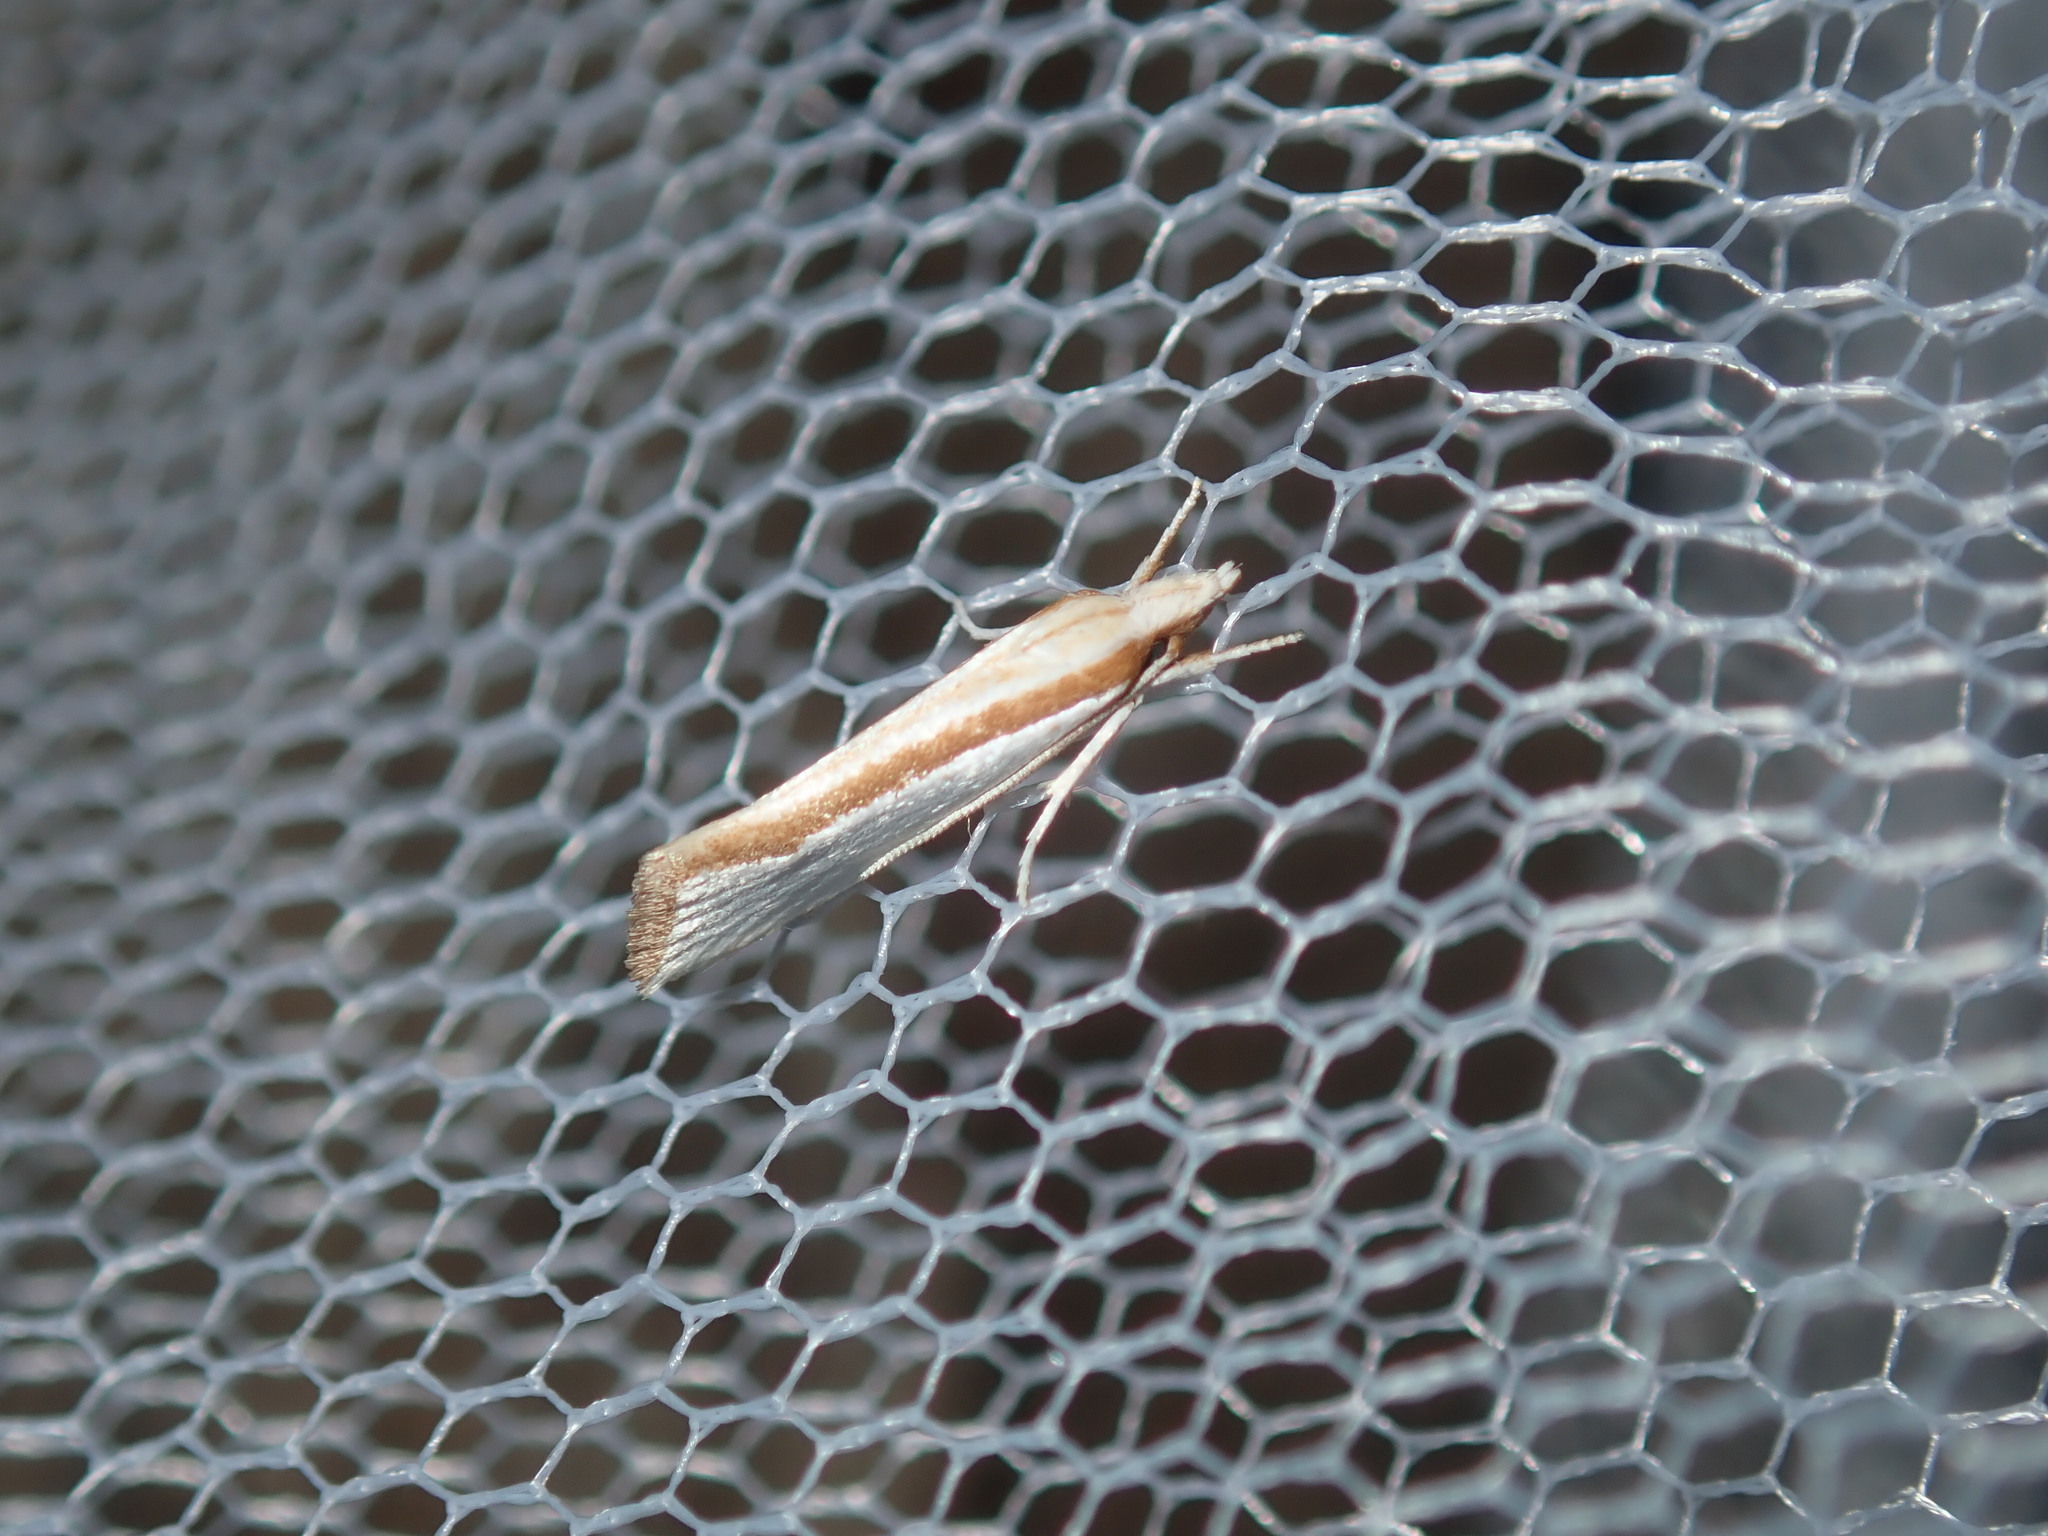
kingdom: Animalia
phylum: Arthropoda
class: Insecta
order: Lepidoptera
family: Depressariidae
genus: Thudaca
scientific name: Thudaca circumdatella
